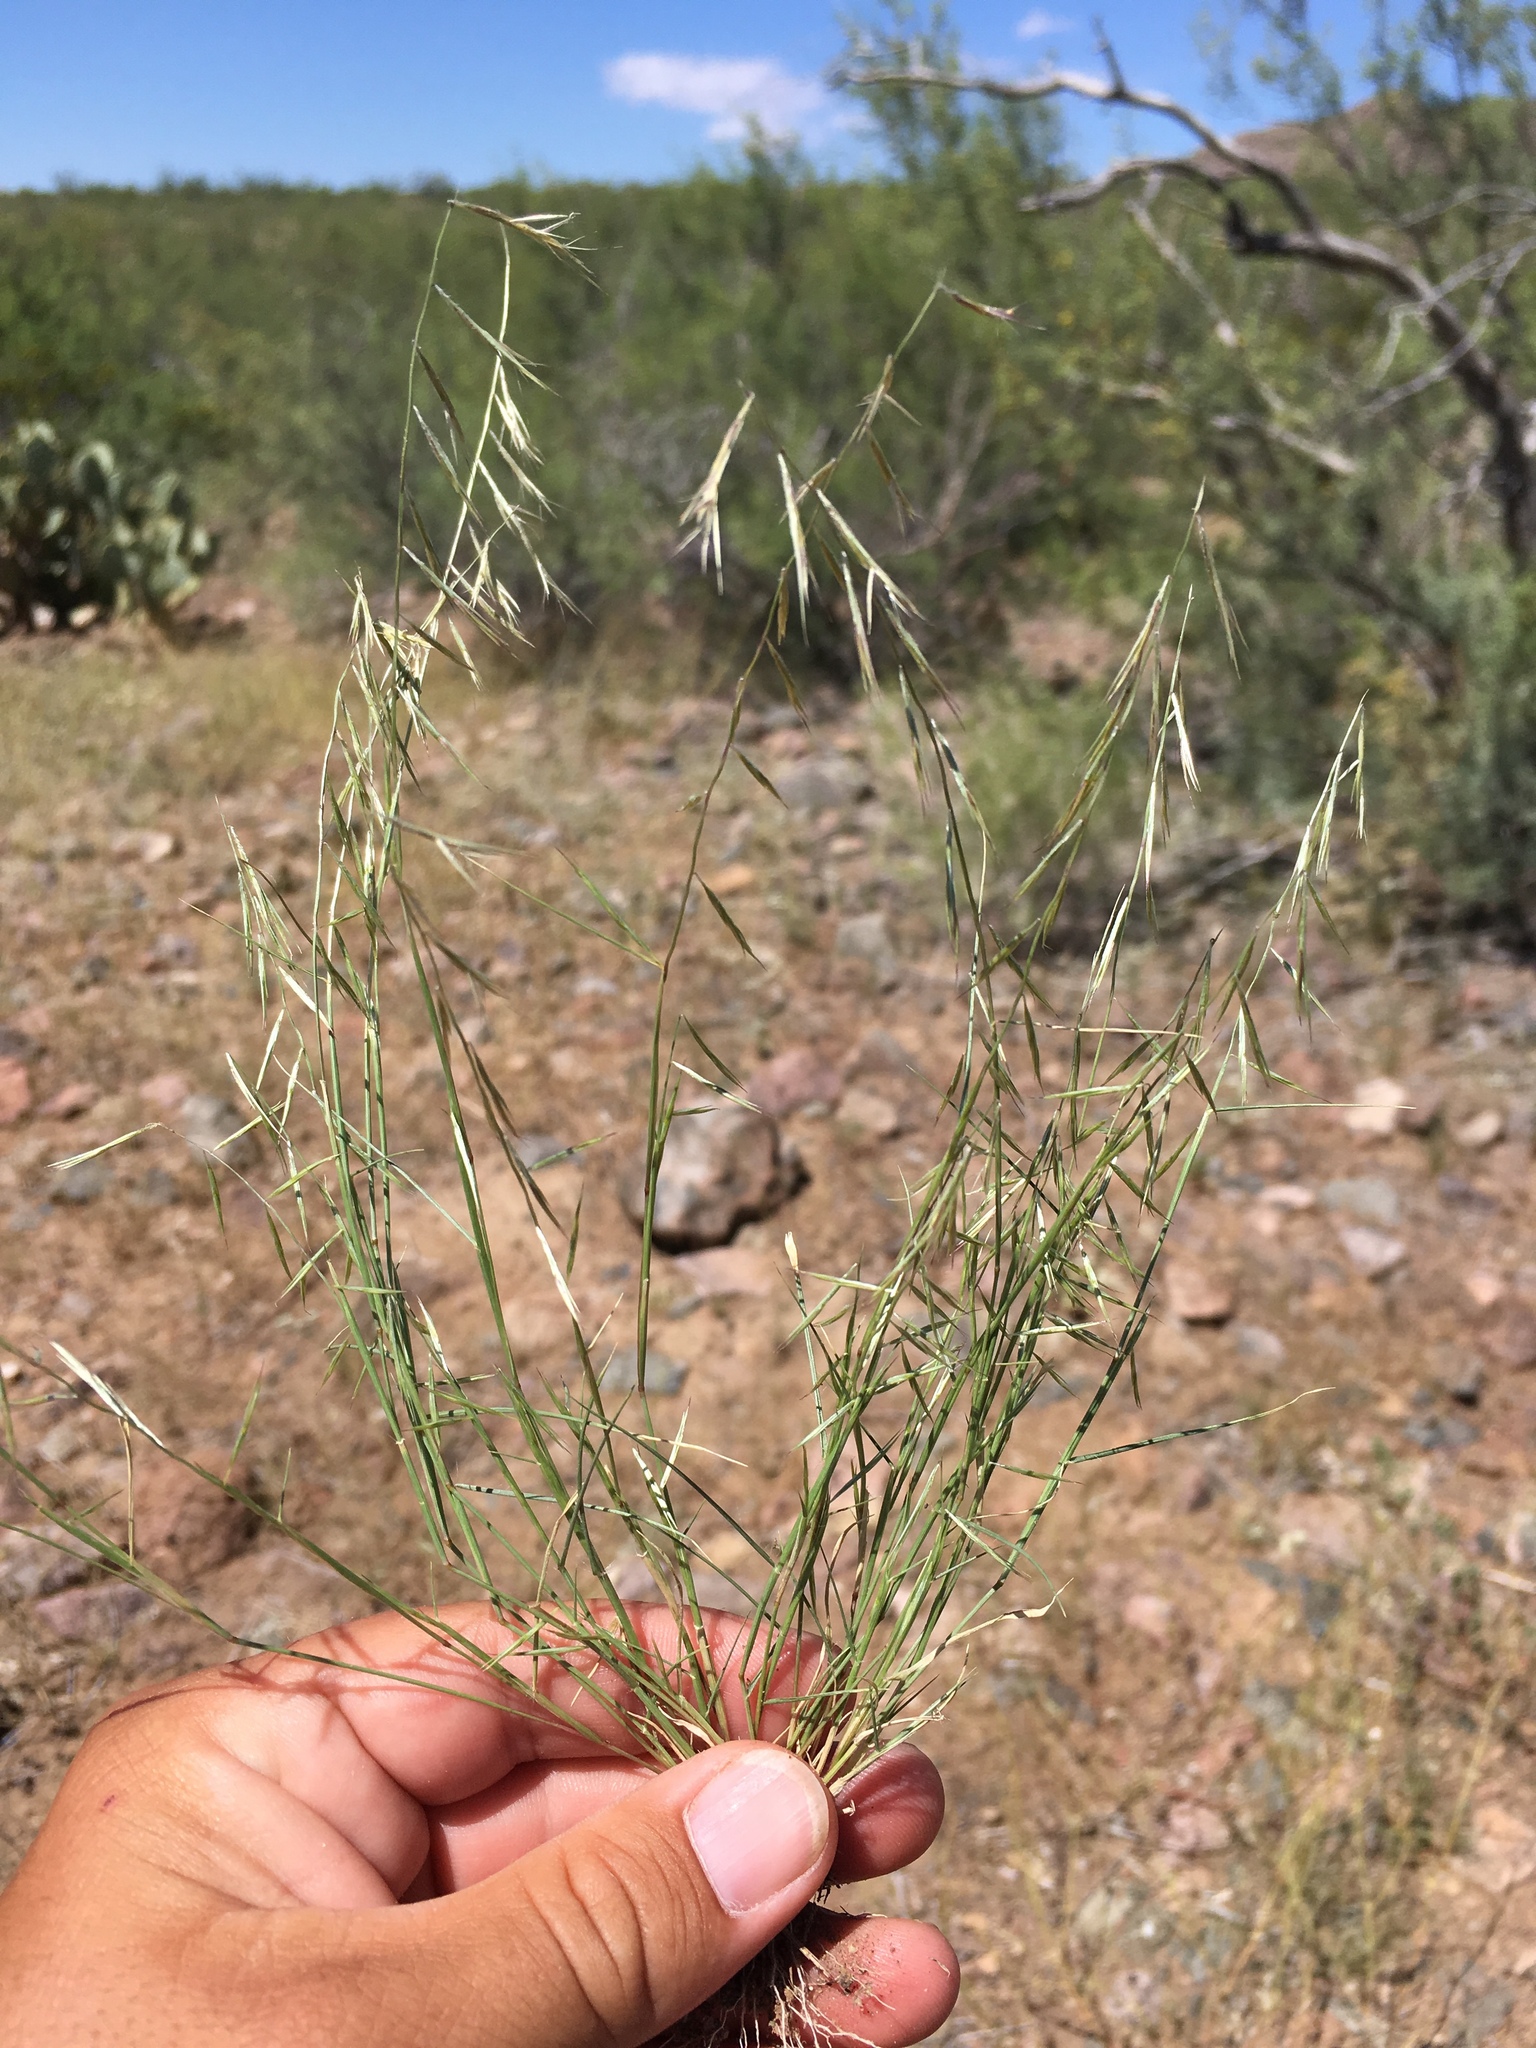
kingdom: Plantae
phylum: Tracheophyta
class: Liliopsida
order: Poales
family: Poaceae
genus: Bouteloua
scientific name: Bouteloua aristidoides
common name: Needle grama
